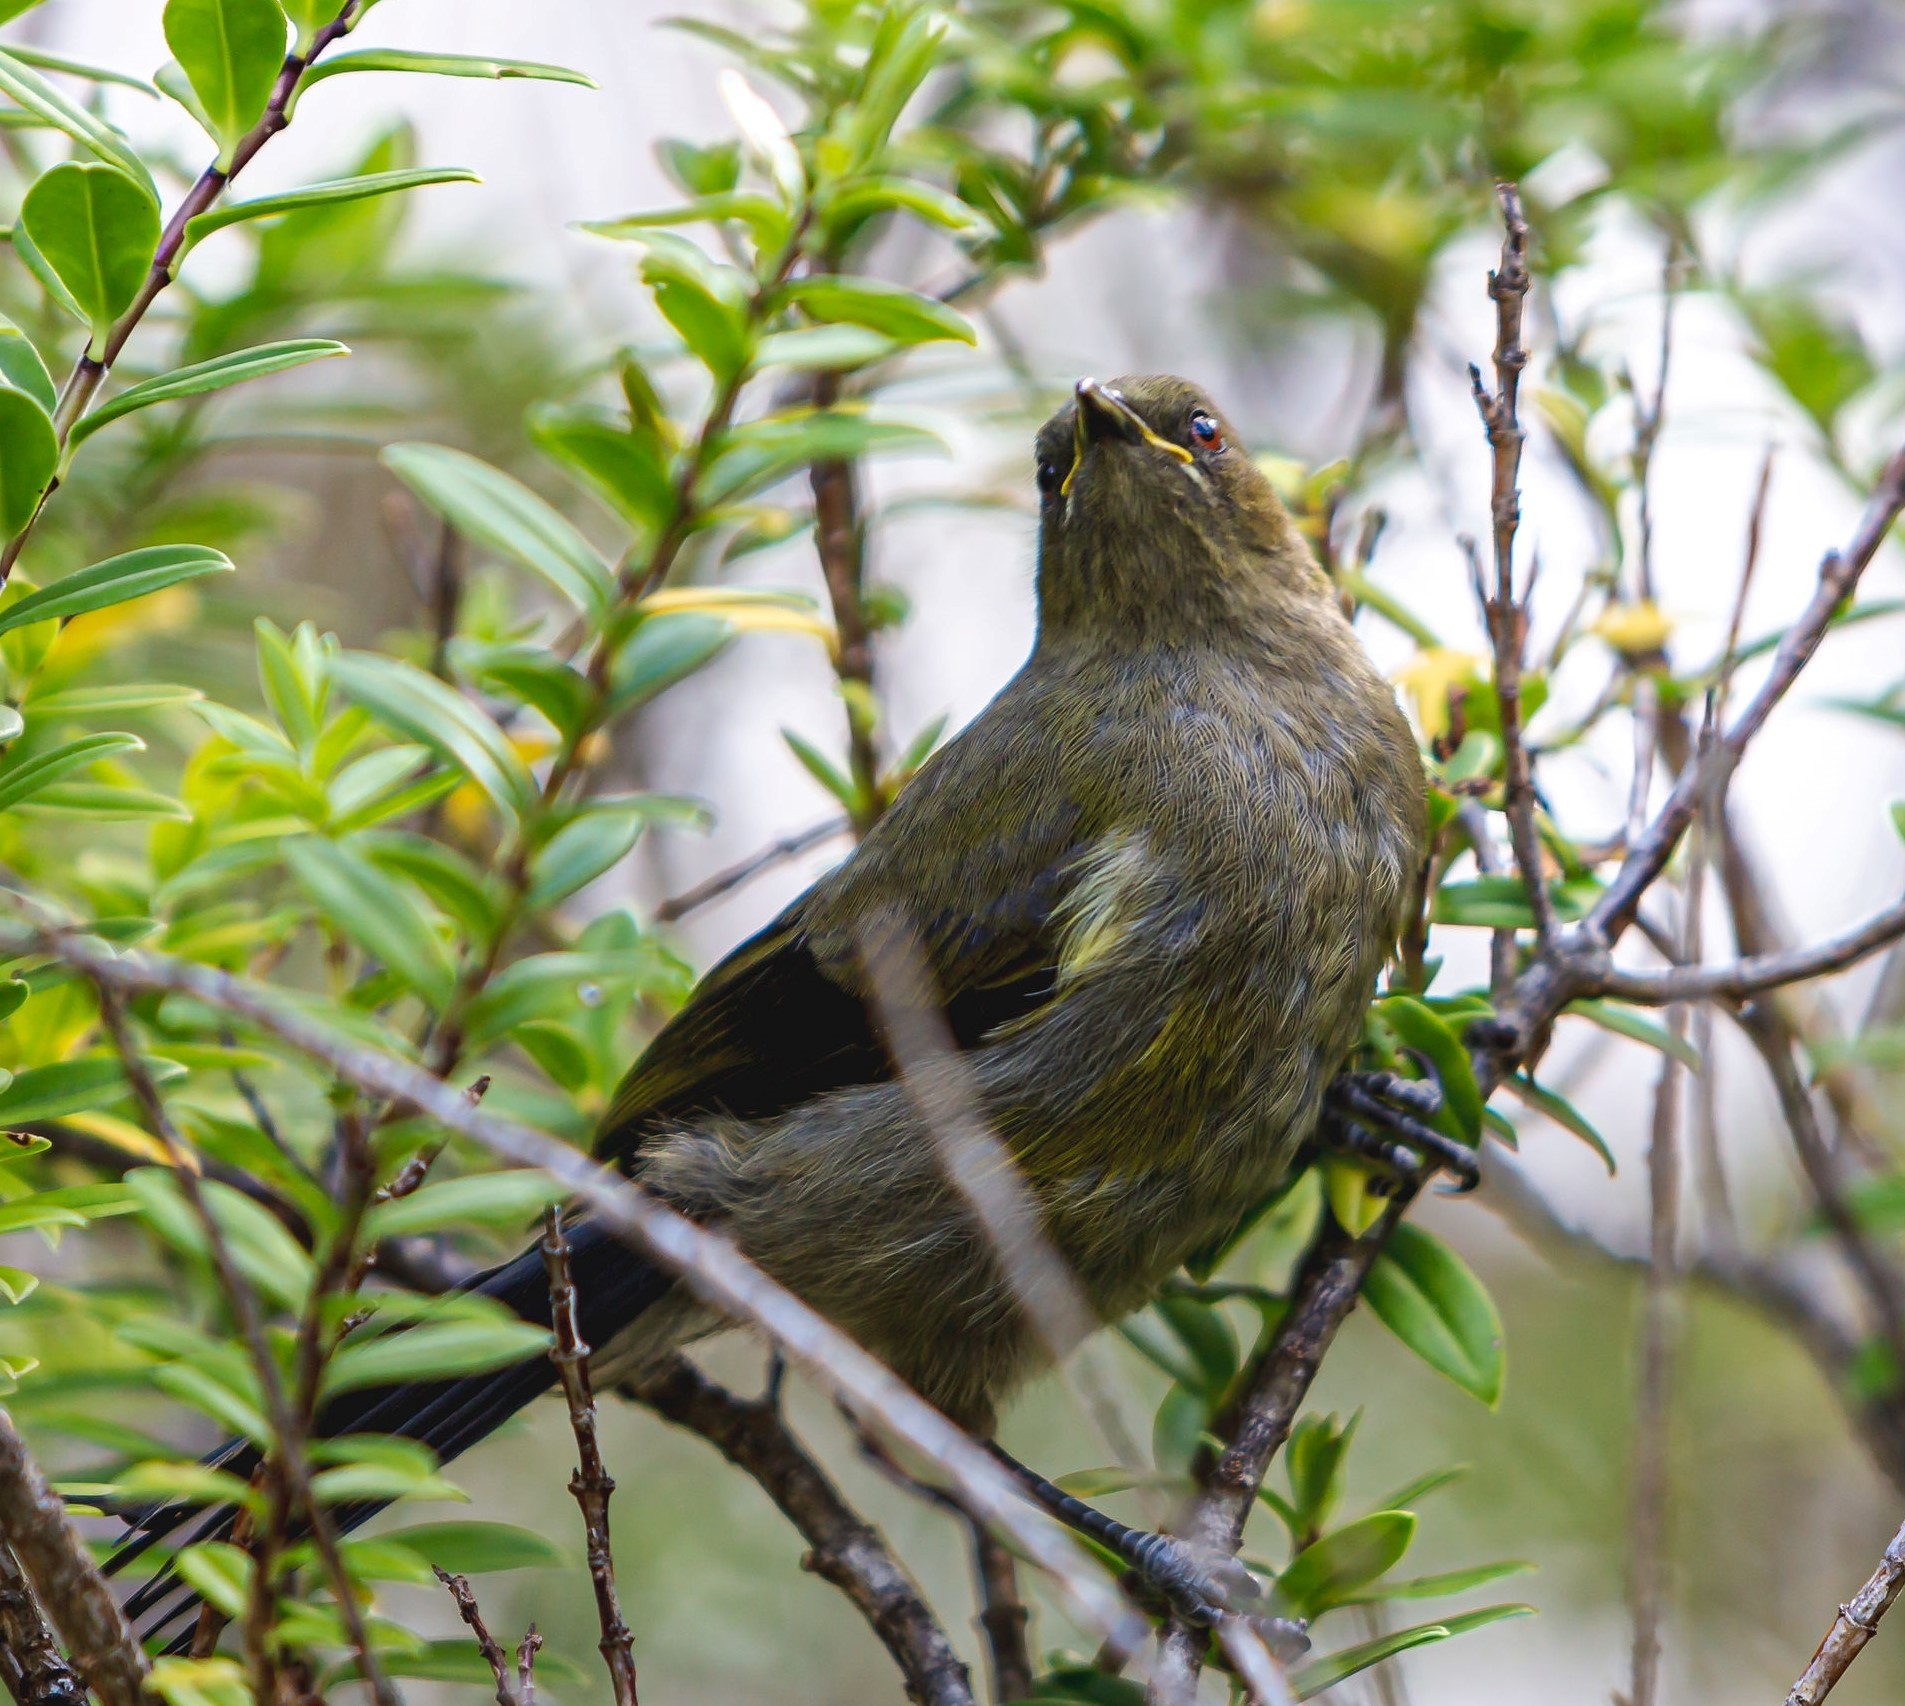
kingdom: Animalia
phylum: Chordata
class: Aves
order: Passeriformes
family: Meliphagidae
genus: Anthornis
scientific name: Anthornis melanura
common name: New zealand bellbird
